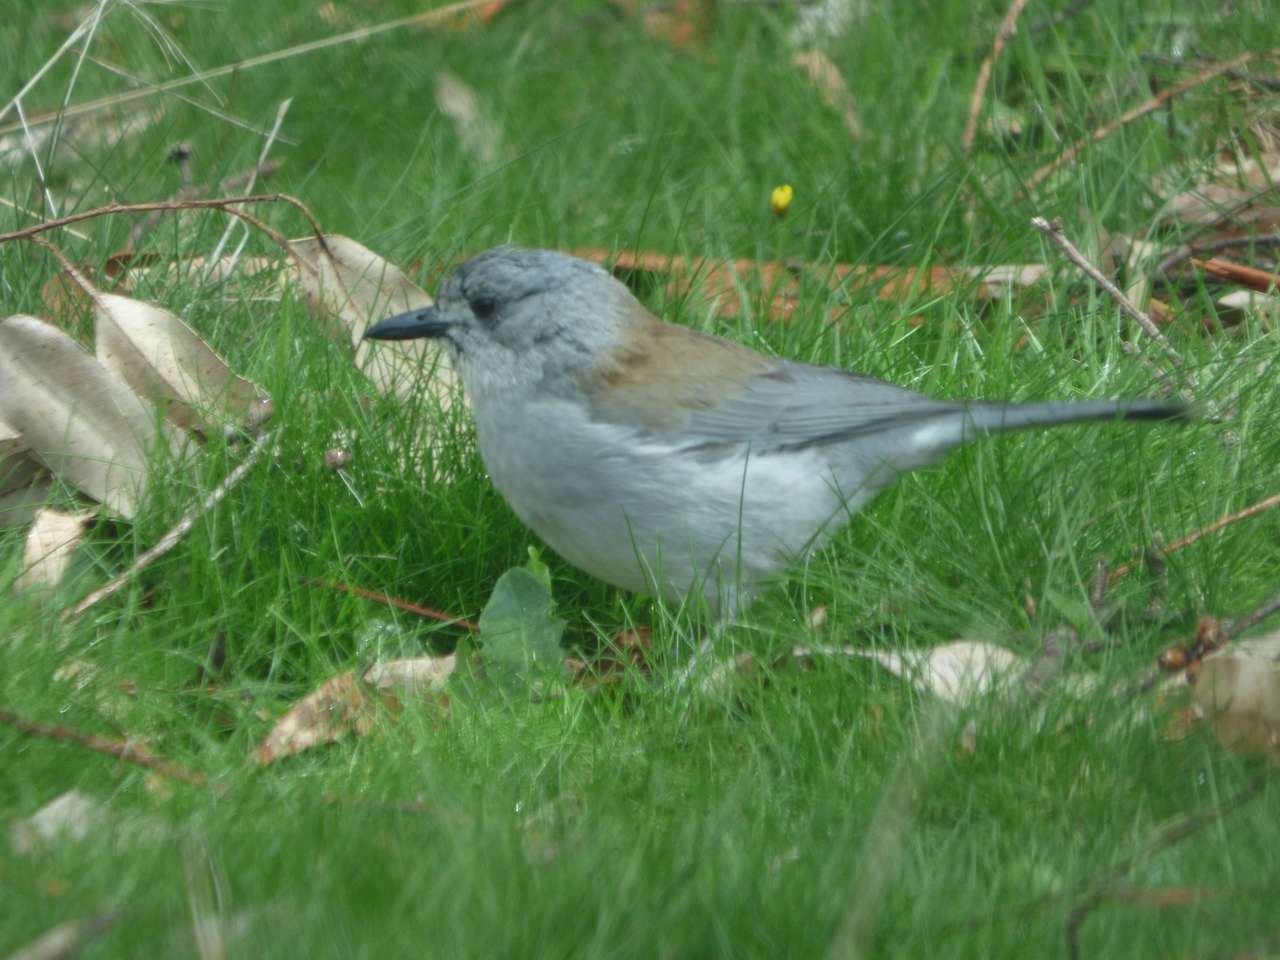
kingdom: Animalia
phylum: Chordata
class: Aves
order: Passeriformes
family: Pachycephalidae
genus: Colluricincla
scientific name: Colluricincla harmonica
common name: Grey shrikethrush
